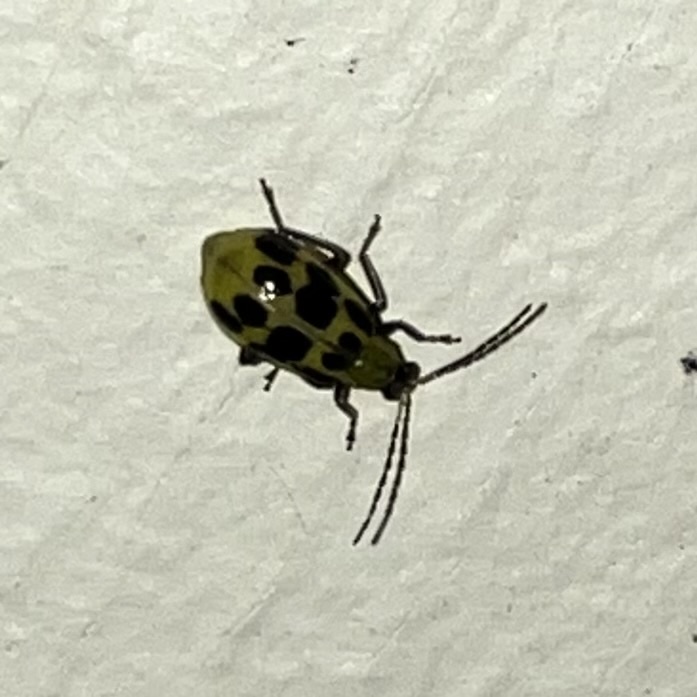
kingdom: Animalia
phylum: Arthropoda
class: Insecta
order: Coleoptera
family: Chrysomelidae
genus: Diabrotica
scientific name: Diabrotica undecimpunctata
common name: Spotted cucumber beetle
